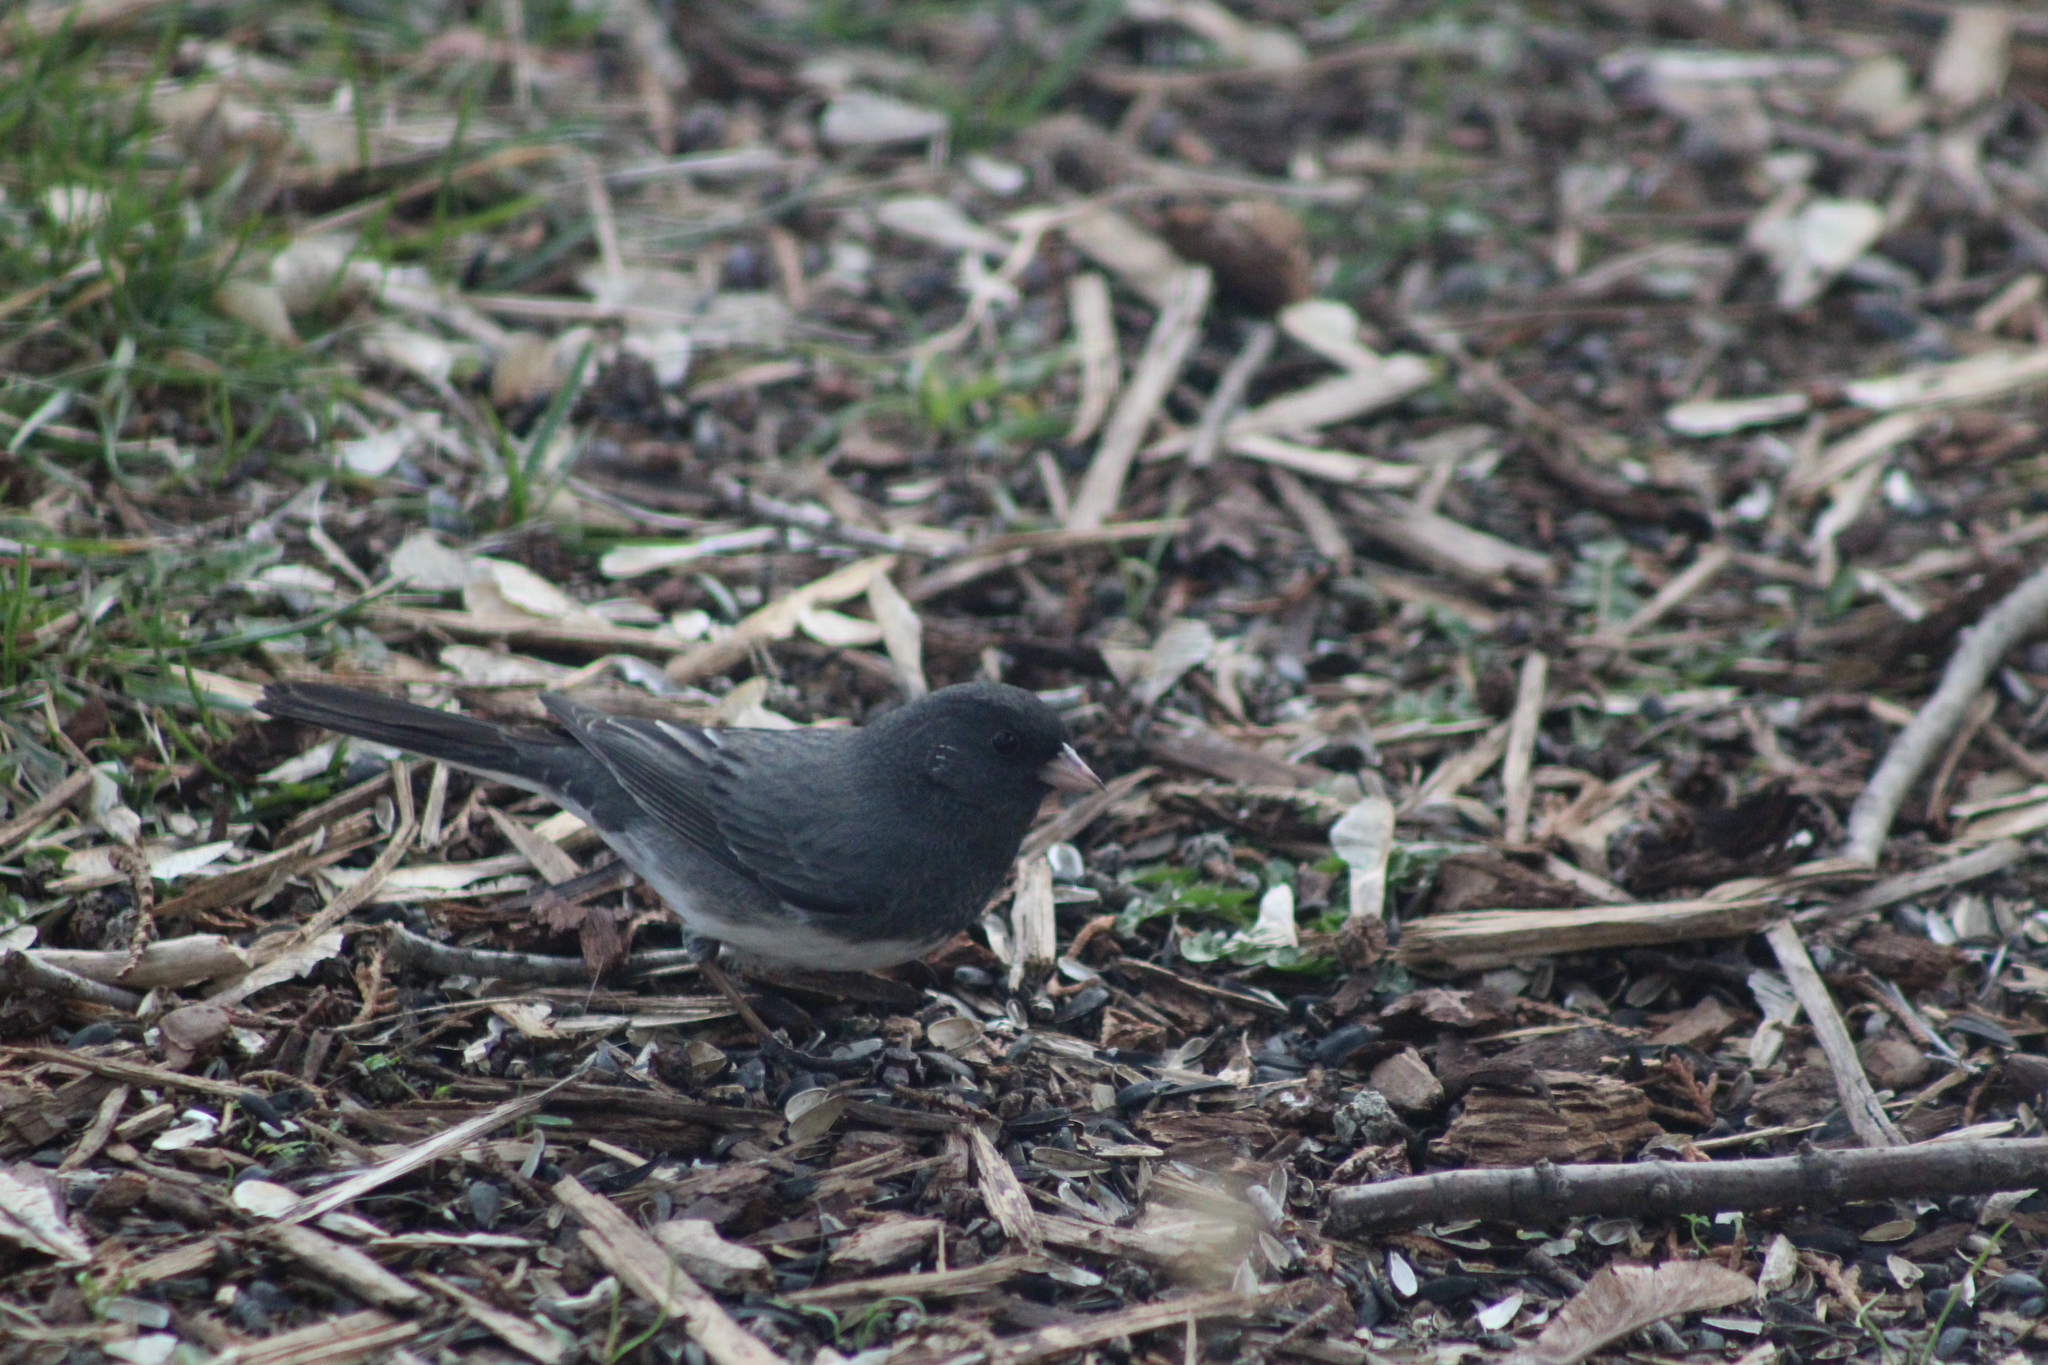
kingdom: Animalia
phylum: Chordata
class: Aves
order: Passeriformes
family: Passerellidae
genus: Junco
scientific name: Junco hyemalis
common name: Dark-eyed junco
